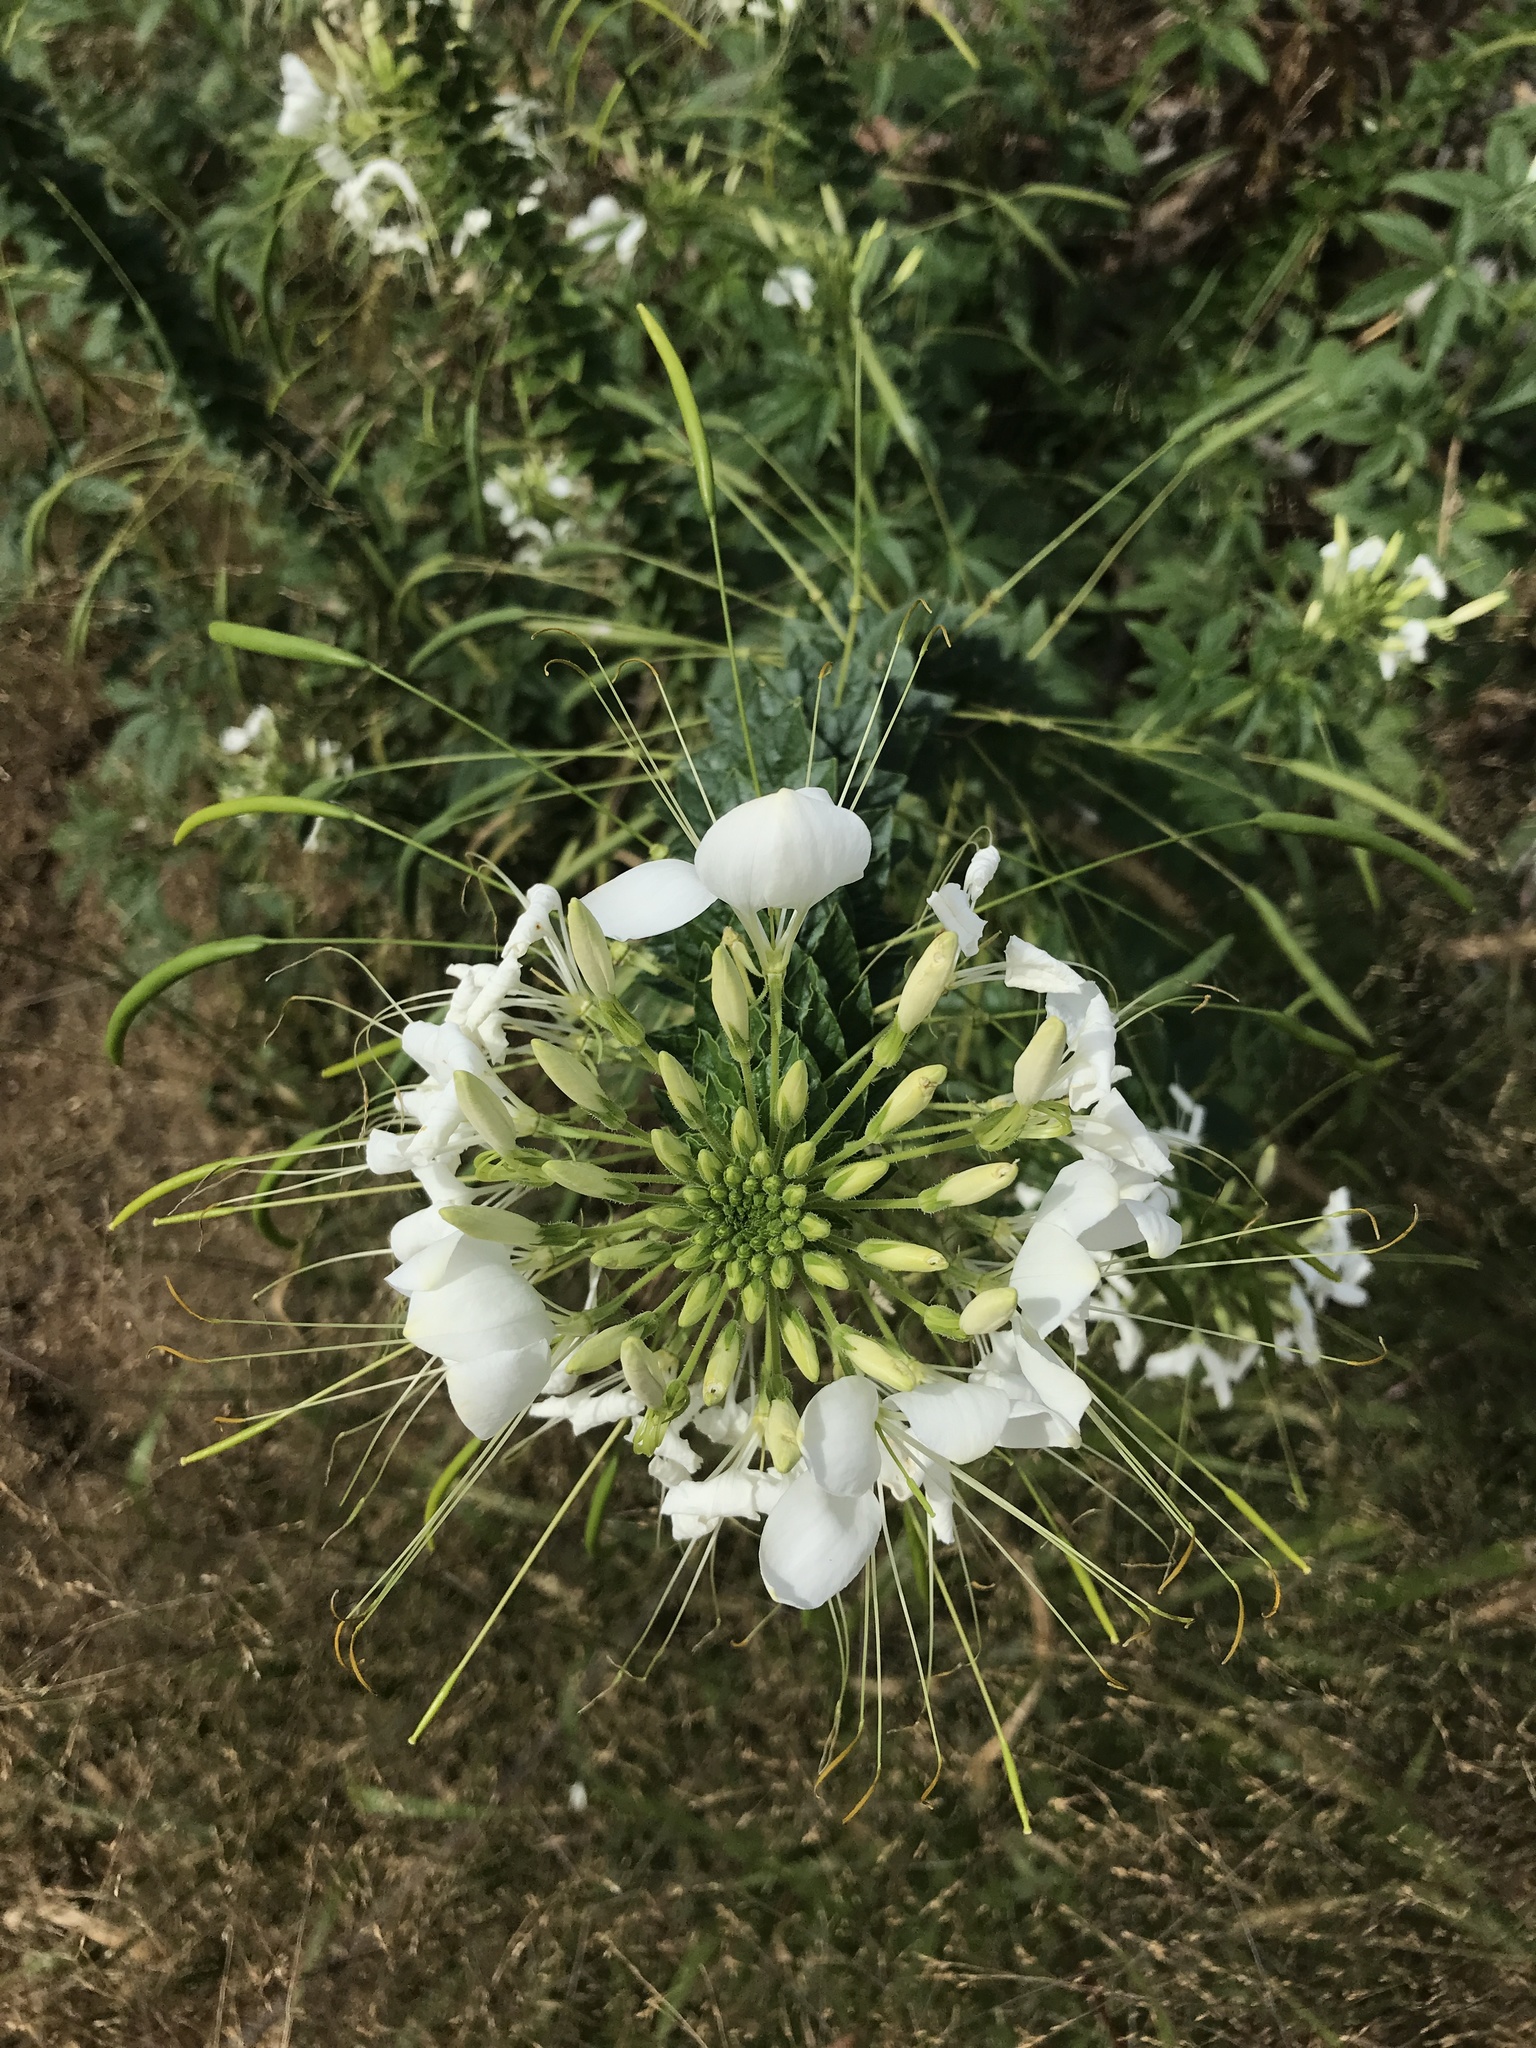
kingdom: Plantae
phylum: Tracheophyta
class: Magnoliopsida
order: Brassicales
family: Cleomaceae
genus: Cleome
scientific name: Cleome
